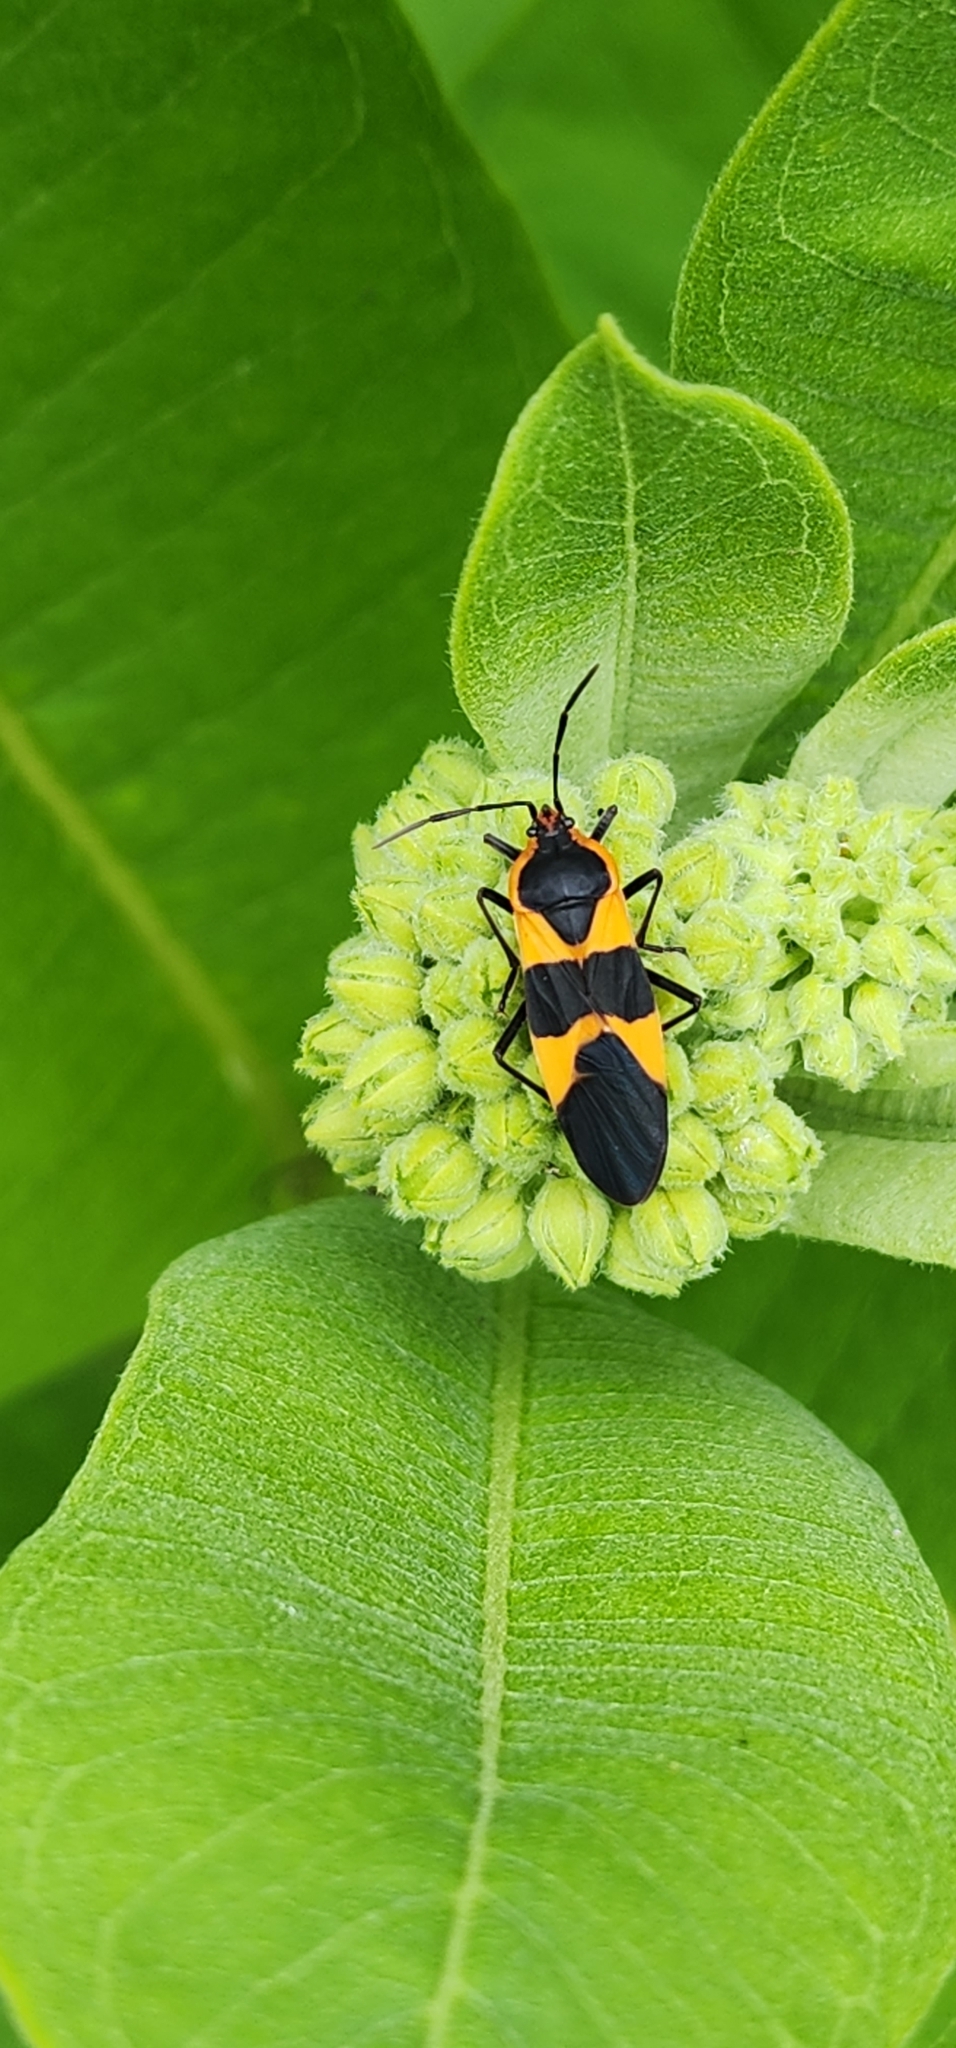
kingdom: Animalia
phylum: Arthropoda
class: Insecta
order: Hemiptera
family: Lygaeidae
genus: Oncopeltus
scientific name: Oncopeltus fasciatus
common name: Large milkweed bug
